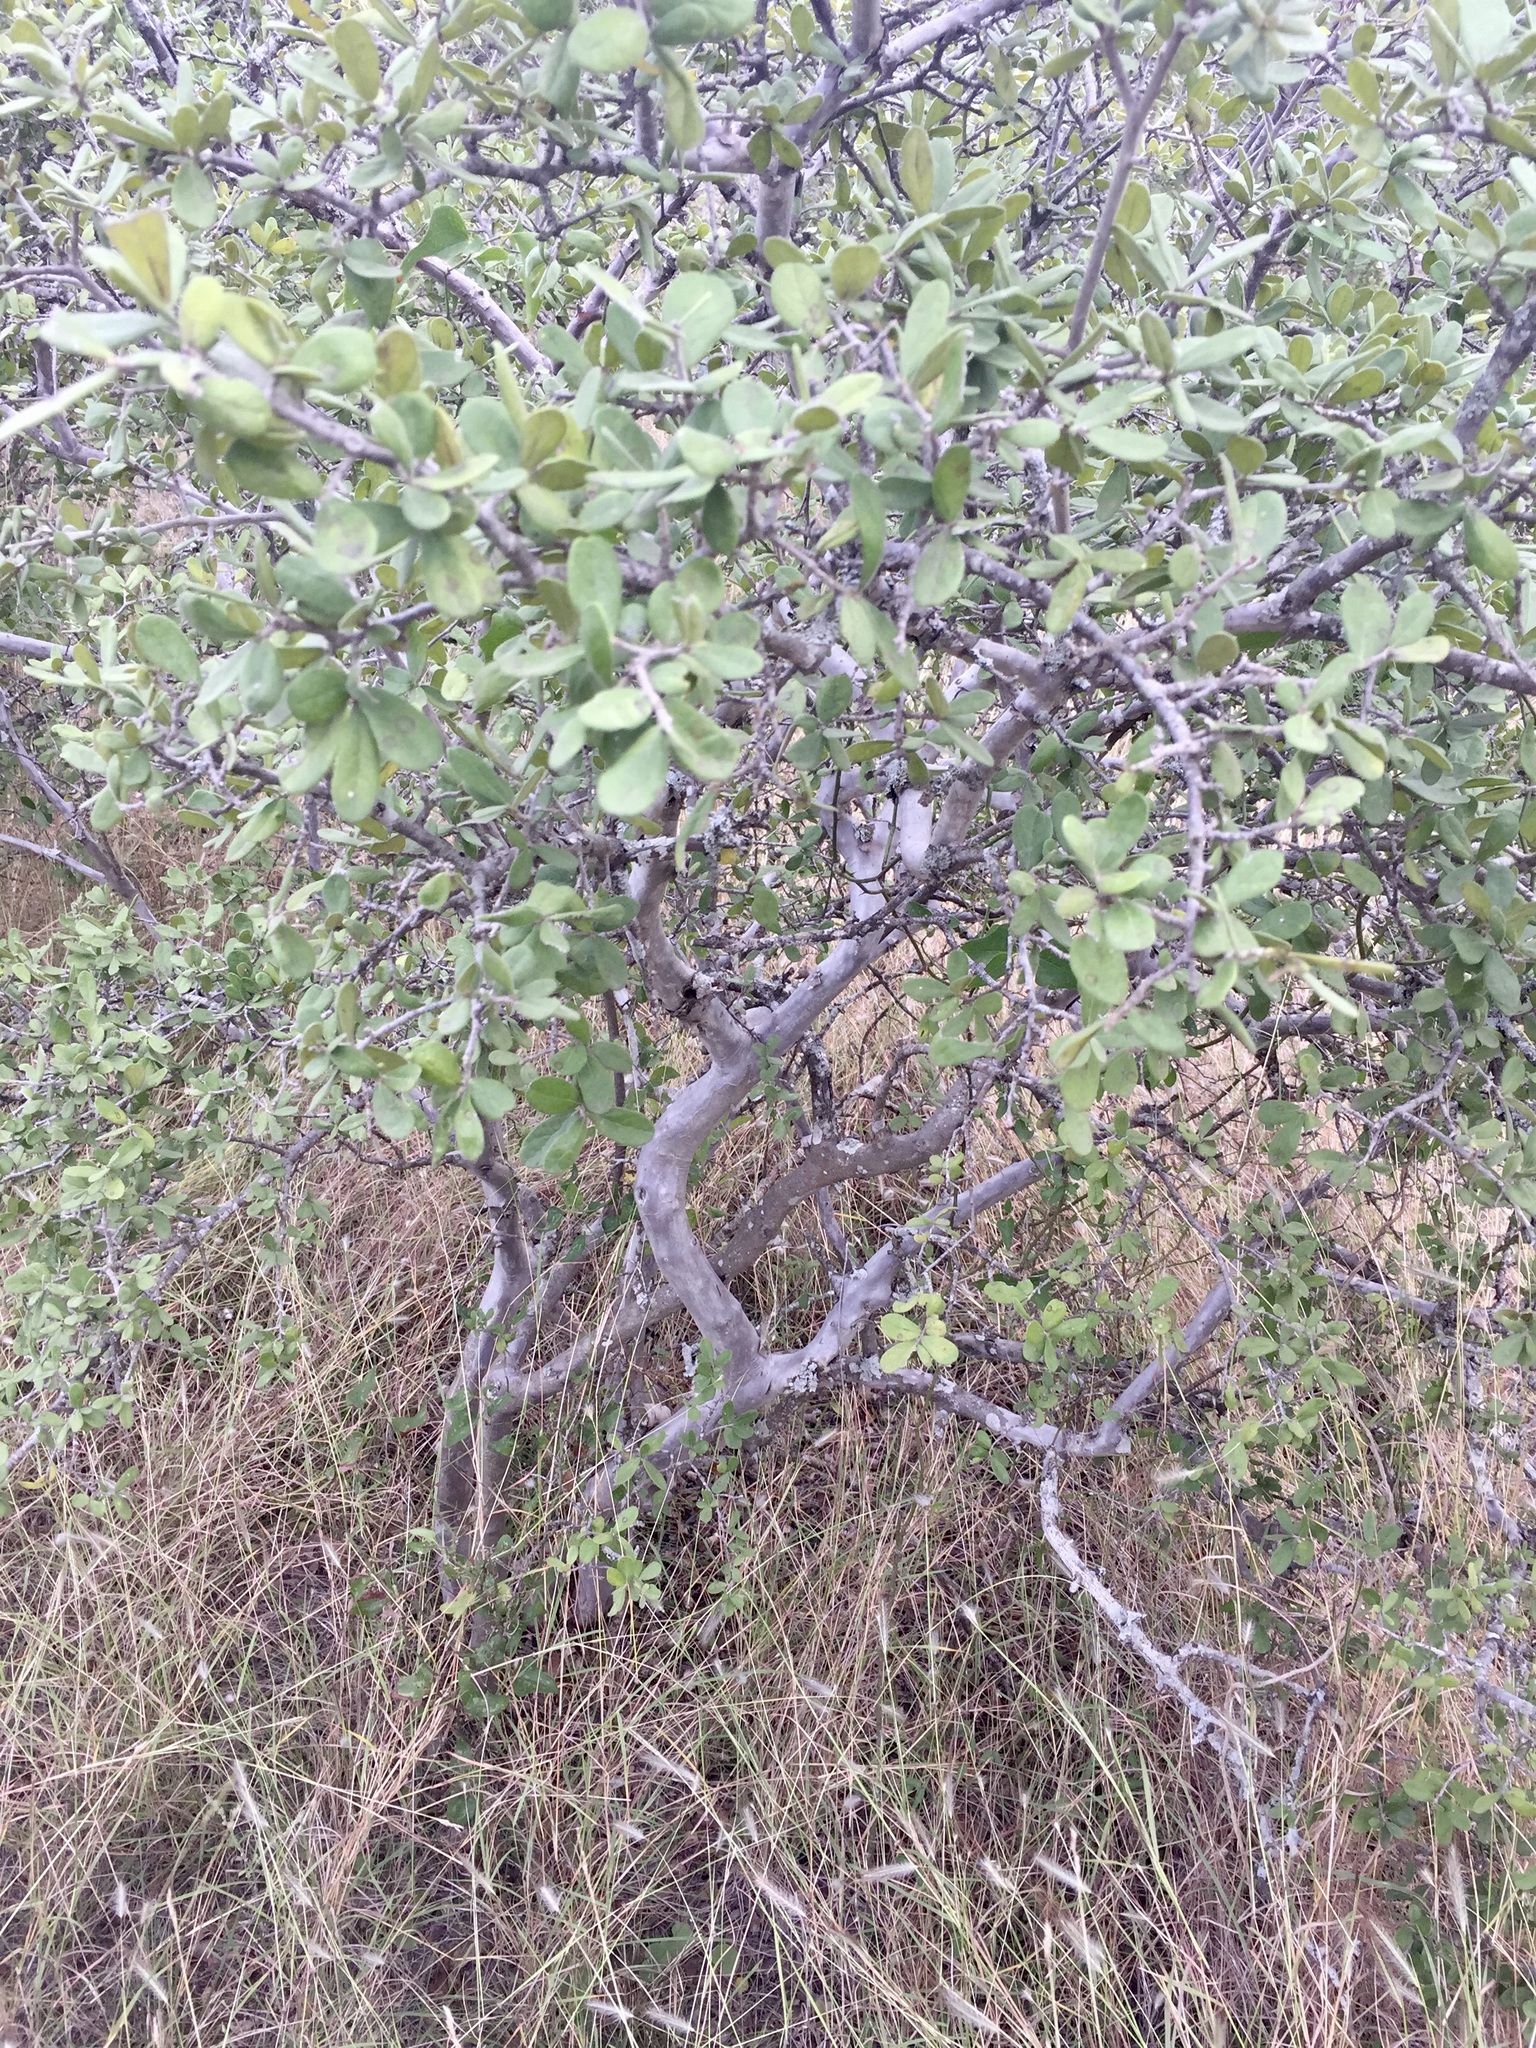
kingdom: Plantae
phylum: Tracheophyta
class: Magnoliopsida
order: Ericales
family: Ebenaceae
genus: Diospyros
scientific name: Diospyros texana
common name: Texas persimmon
